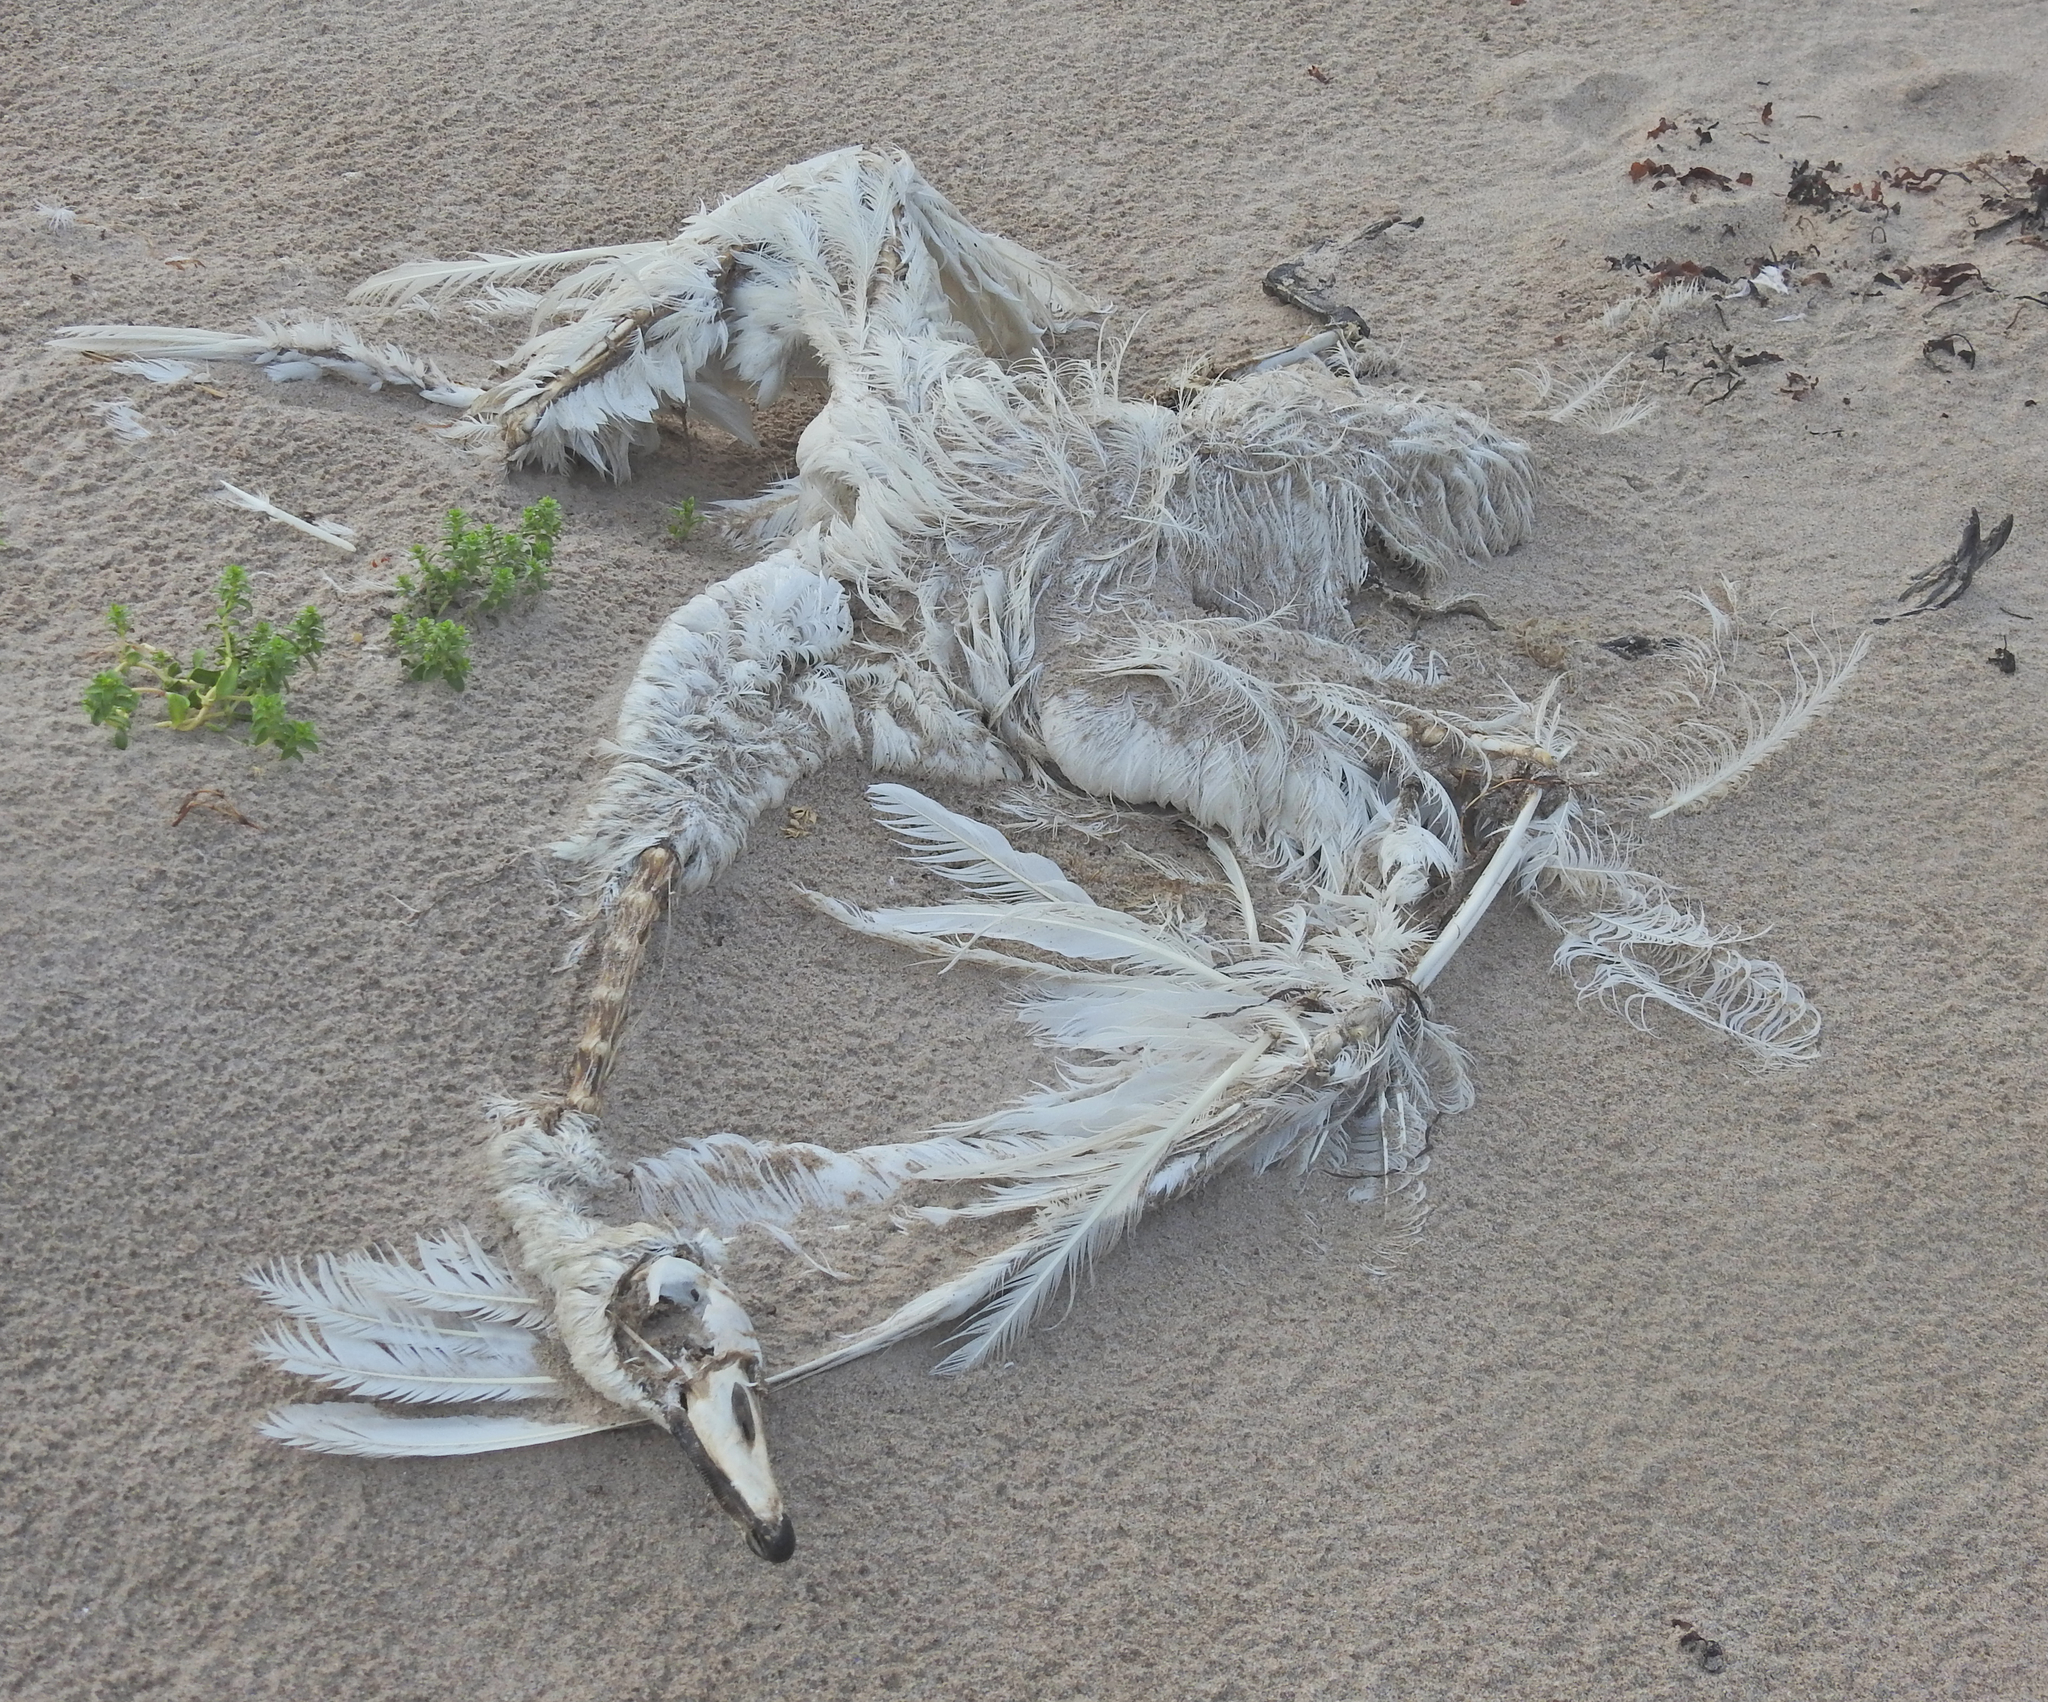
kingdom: Animalia
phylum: Chordata
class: Aves
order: Anseriformes
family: Anatidae
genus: Cygnus
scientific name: Cygnus olor
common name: Mute swan
